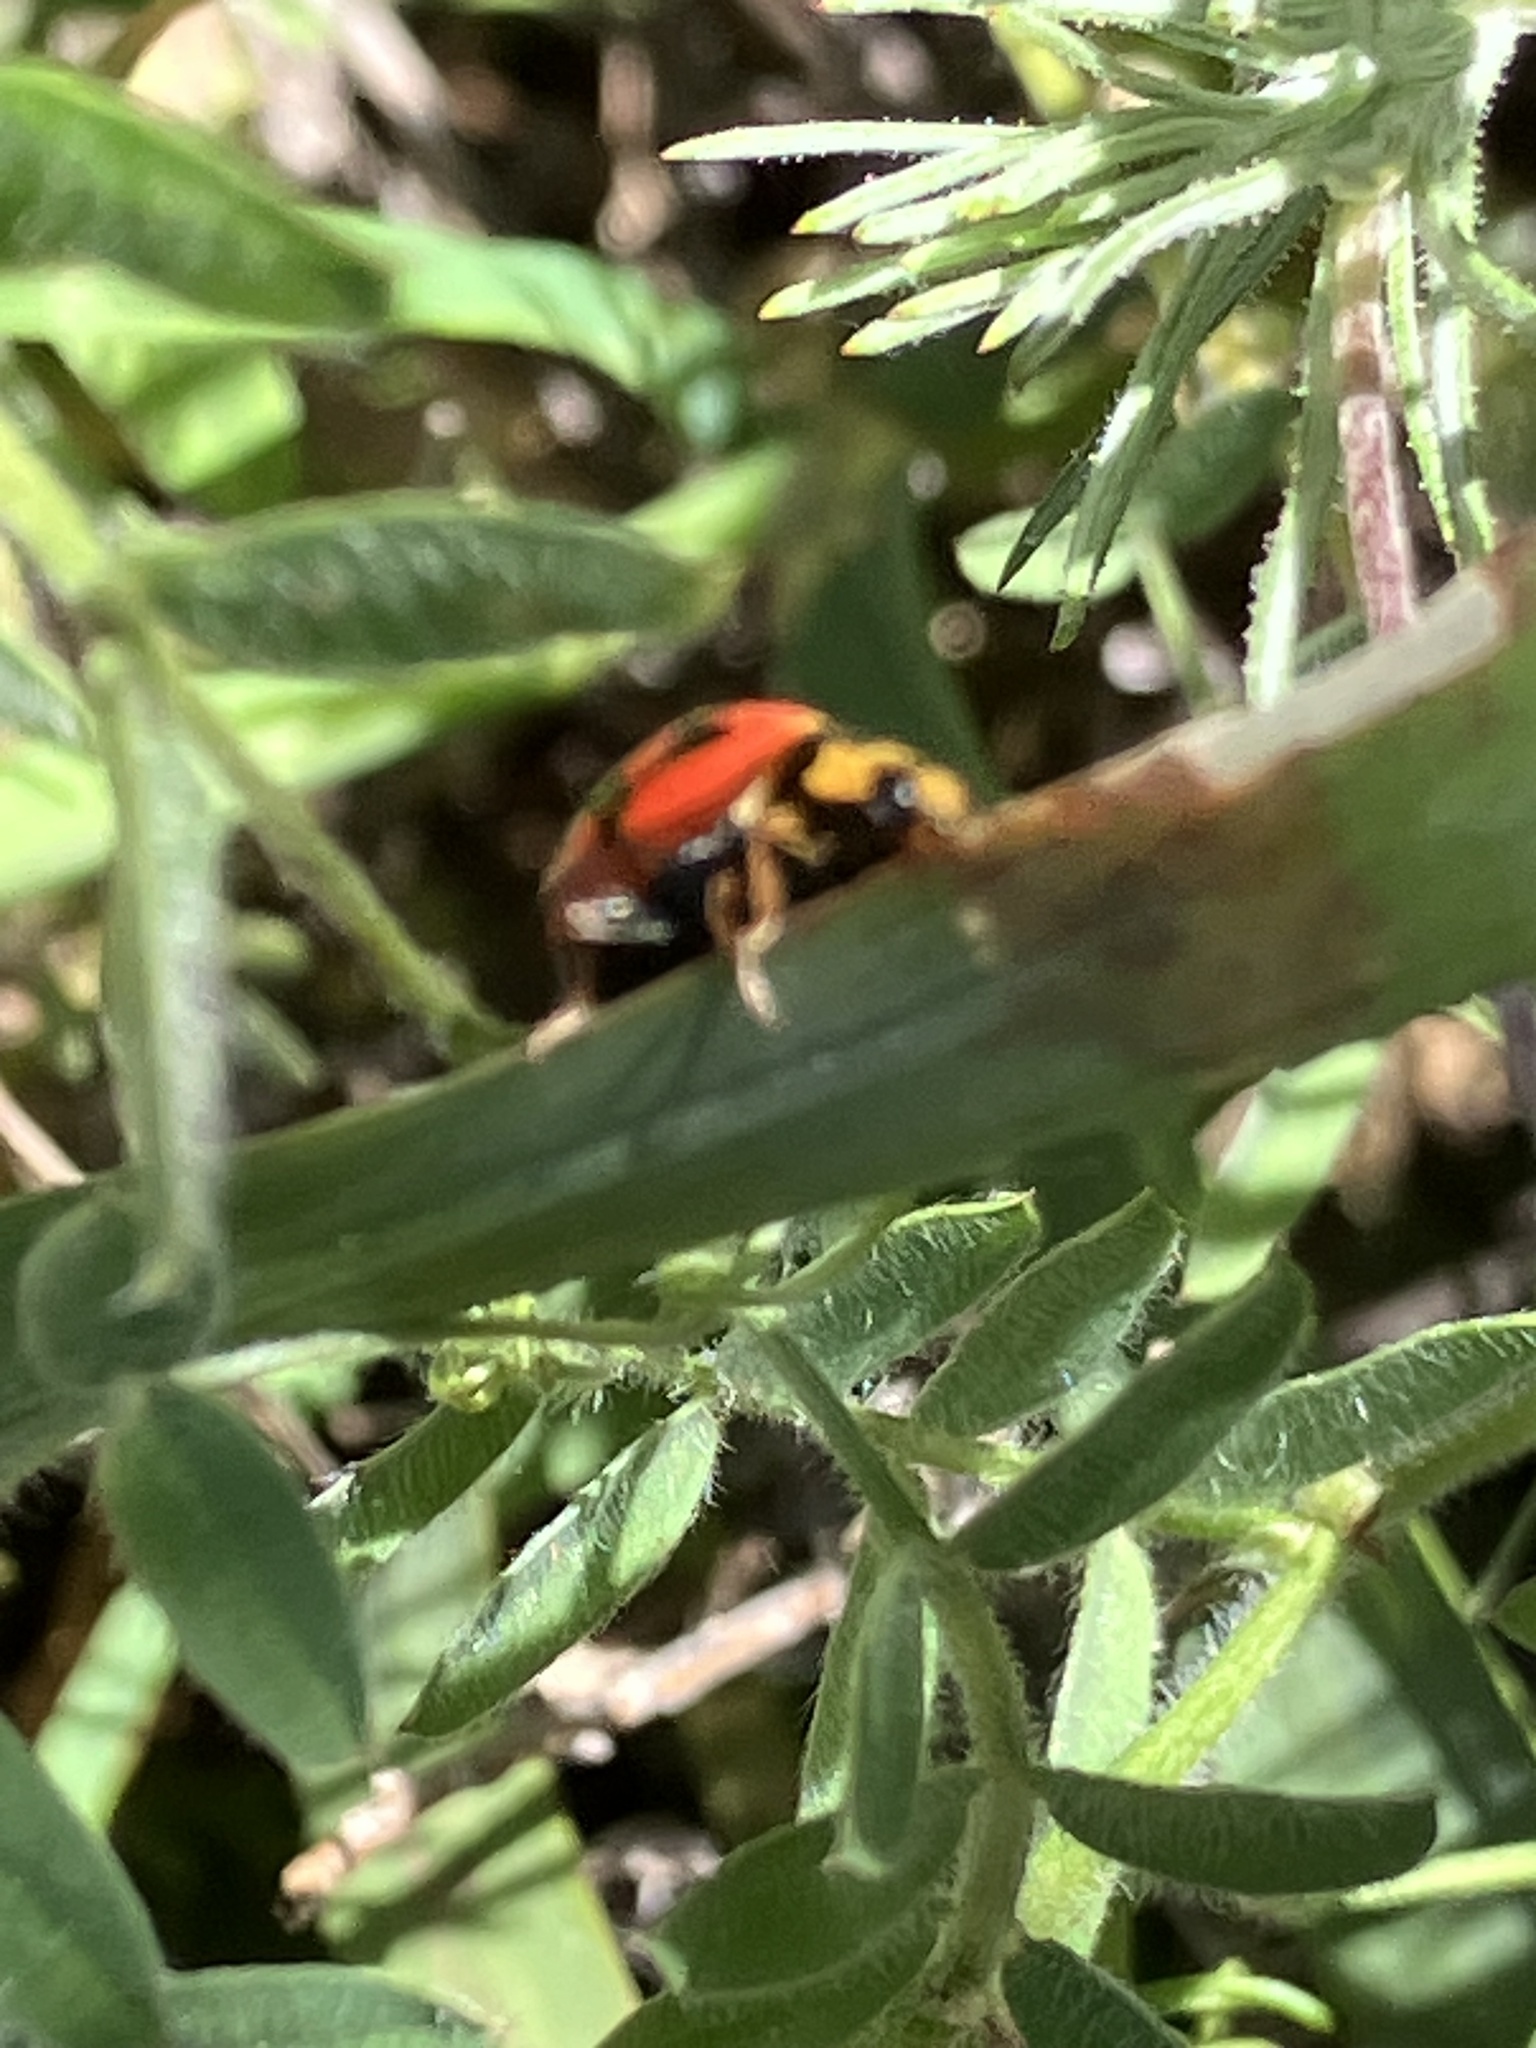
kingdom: Animalia
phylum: Arthropoda
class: Insecta
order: Coleoptera
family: Coccinellidae
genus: Cheilomenes
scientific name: Cheilomenes lunata
